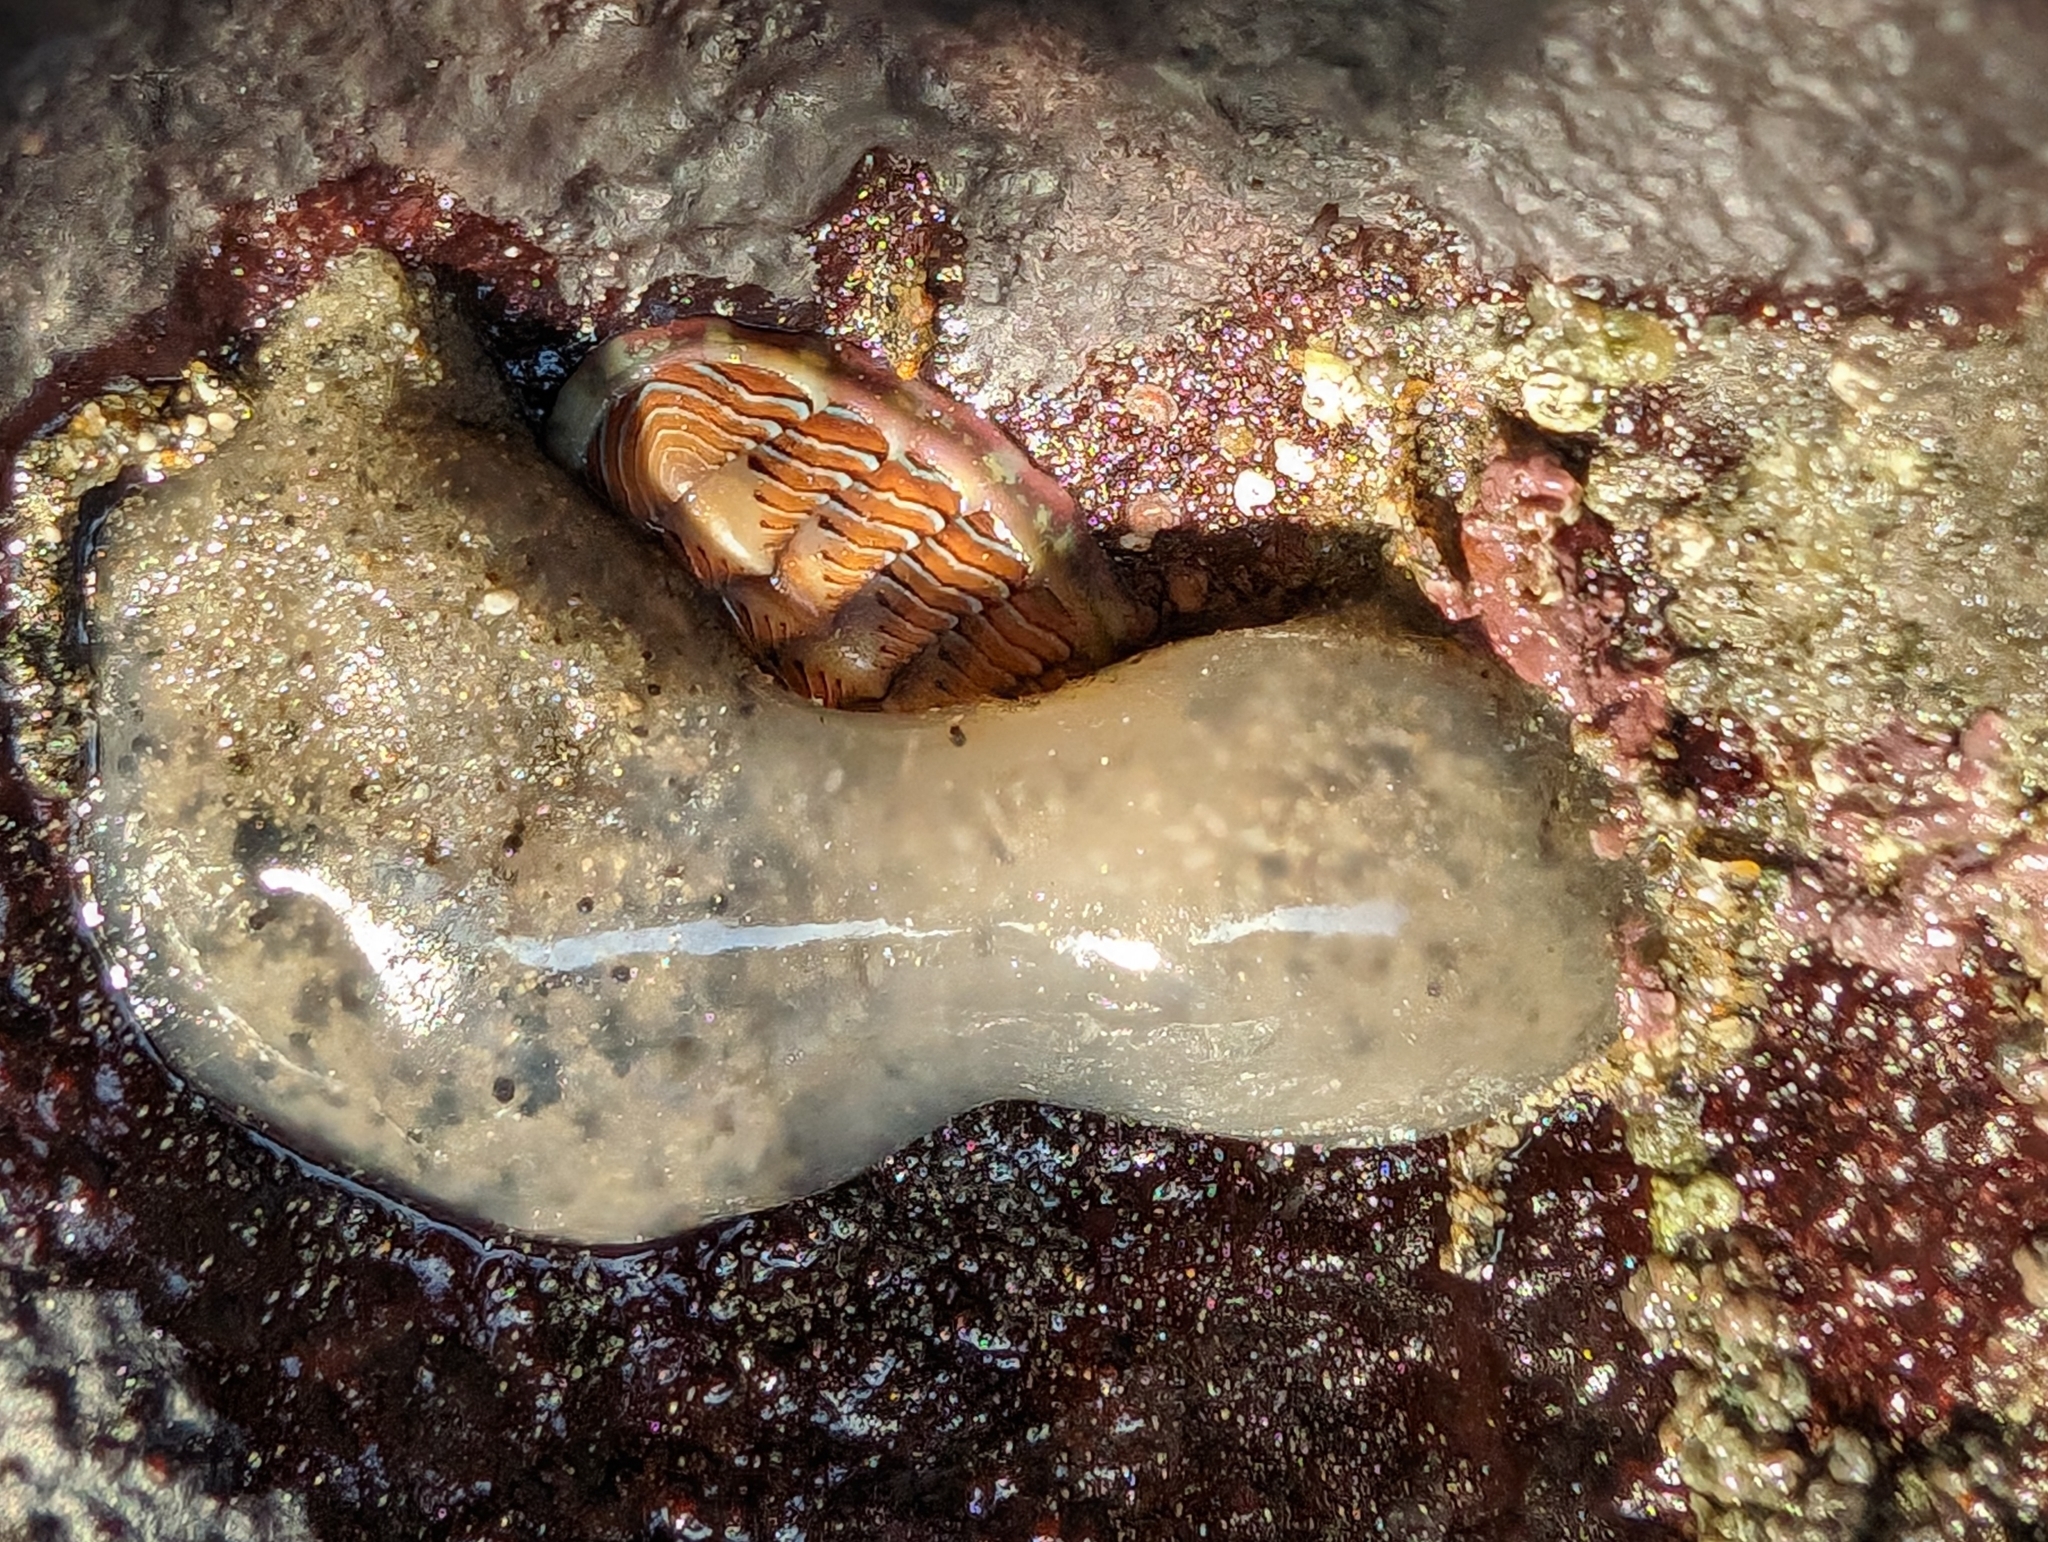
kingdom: Animalia
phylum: Mollusca
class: Polyplacophora
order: Chitonida
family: Tonicellidae
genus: Tonicella
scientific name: Tonicella lineata
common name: Lined chiton
